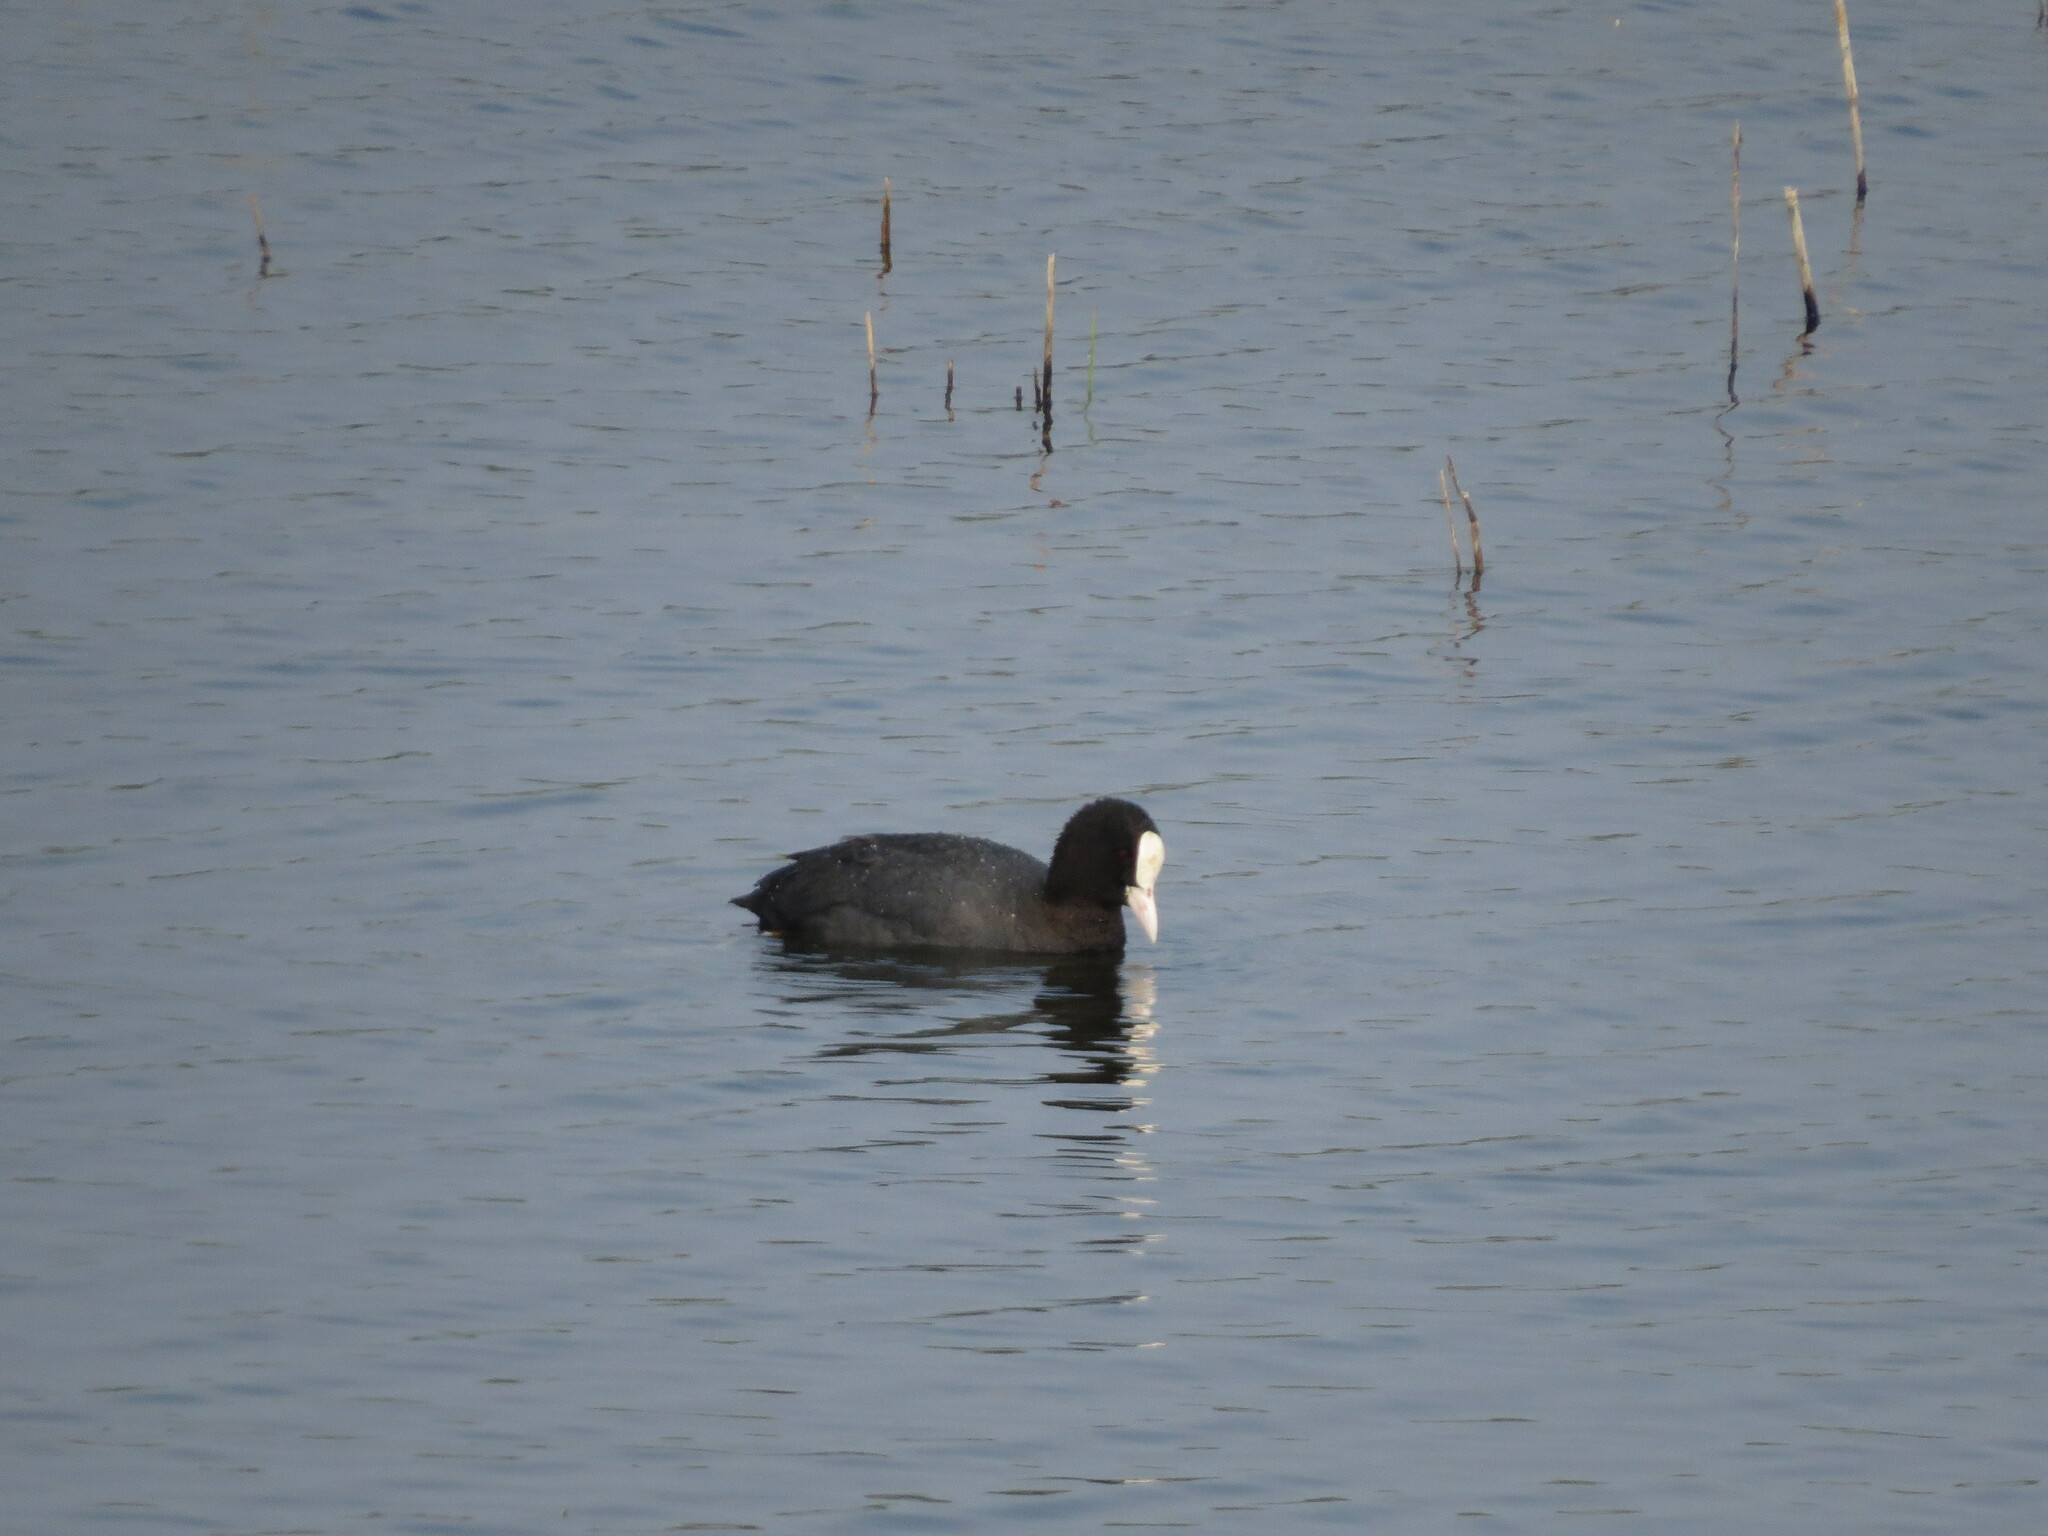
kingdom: Animalia
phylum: Chordata
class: Aves
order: Gruiformes
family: Rallidae
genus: Fulica
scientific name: Fulica atra
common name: Eurasian coot
